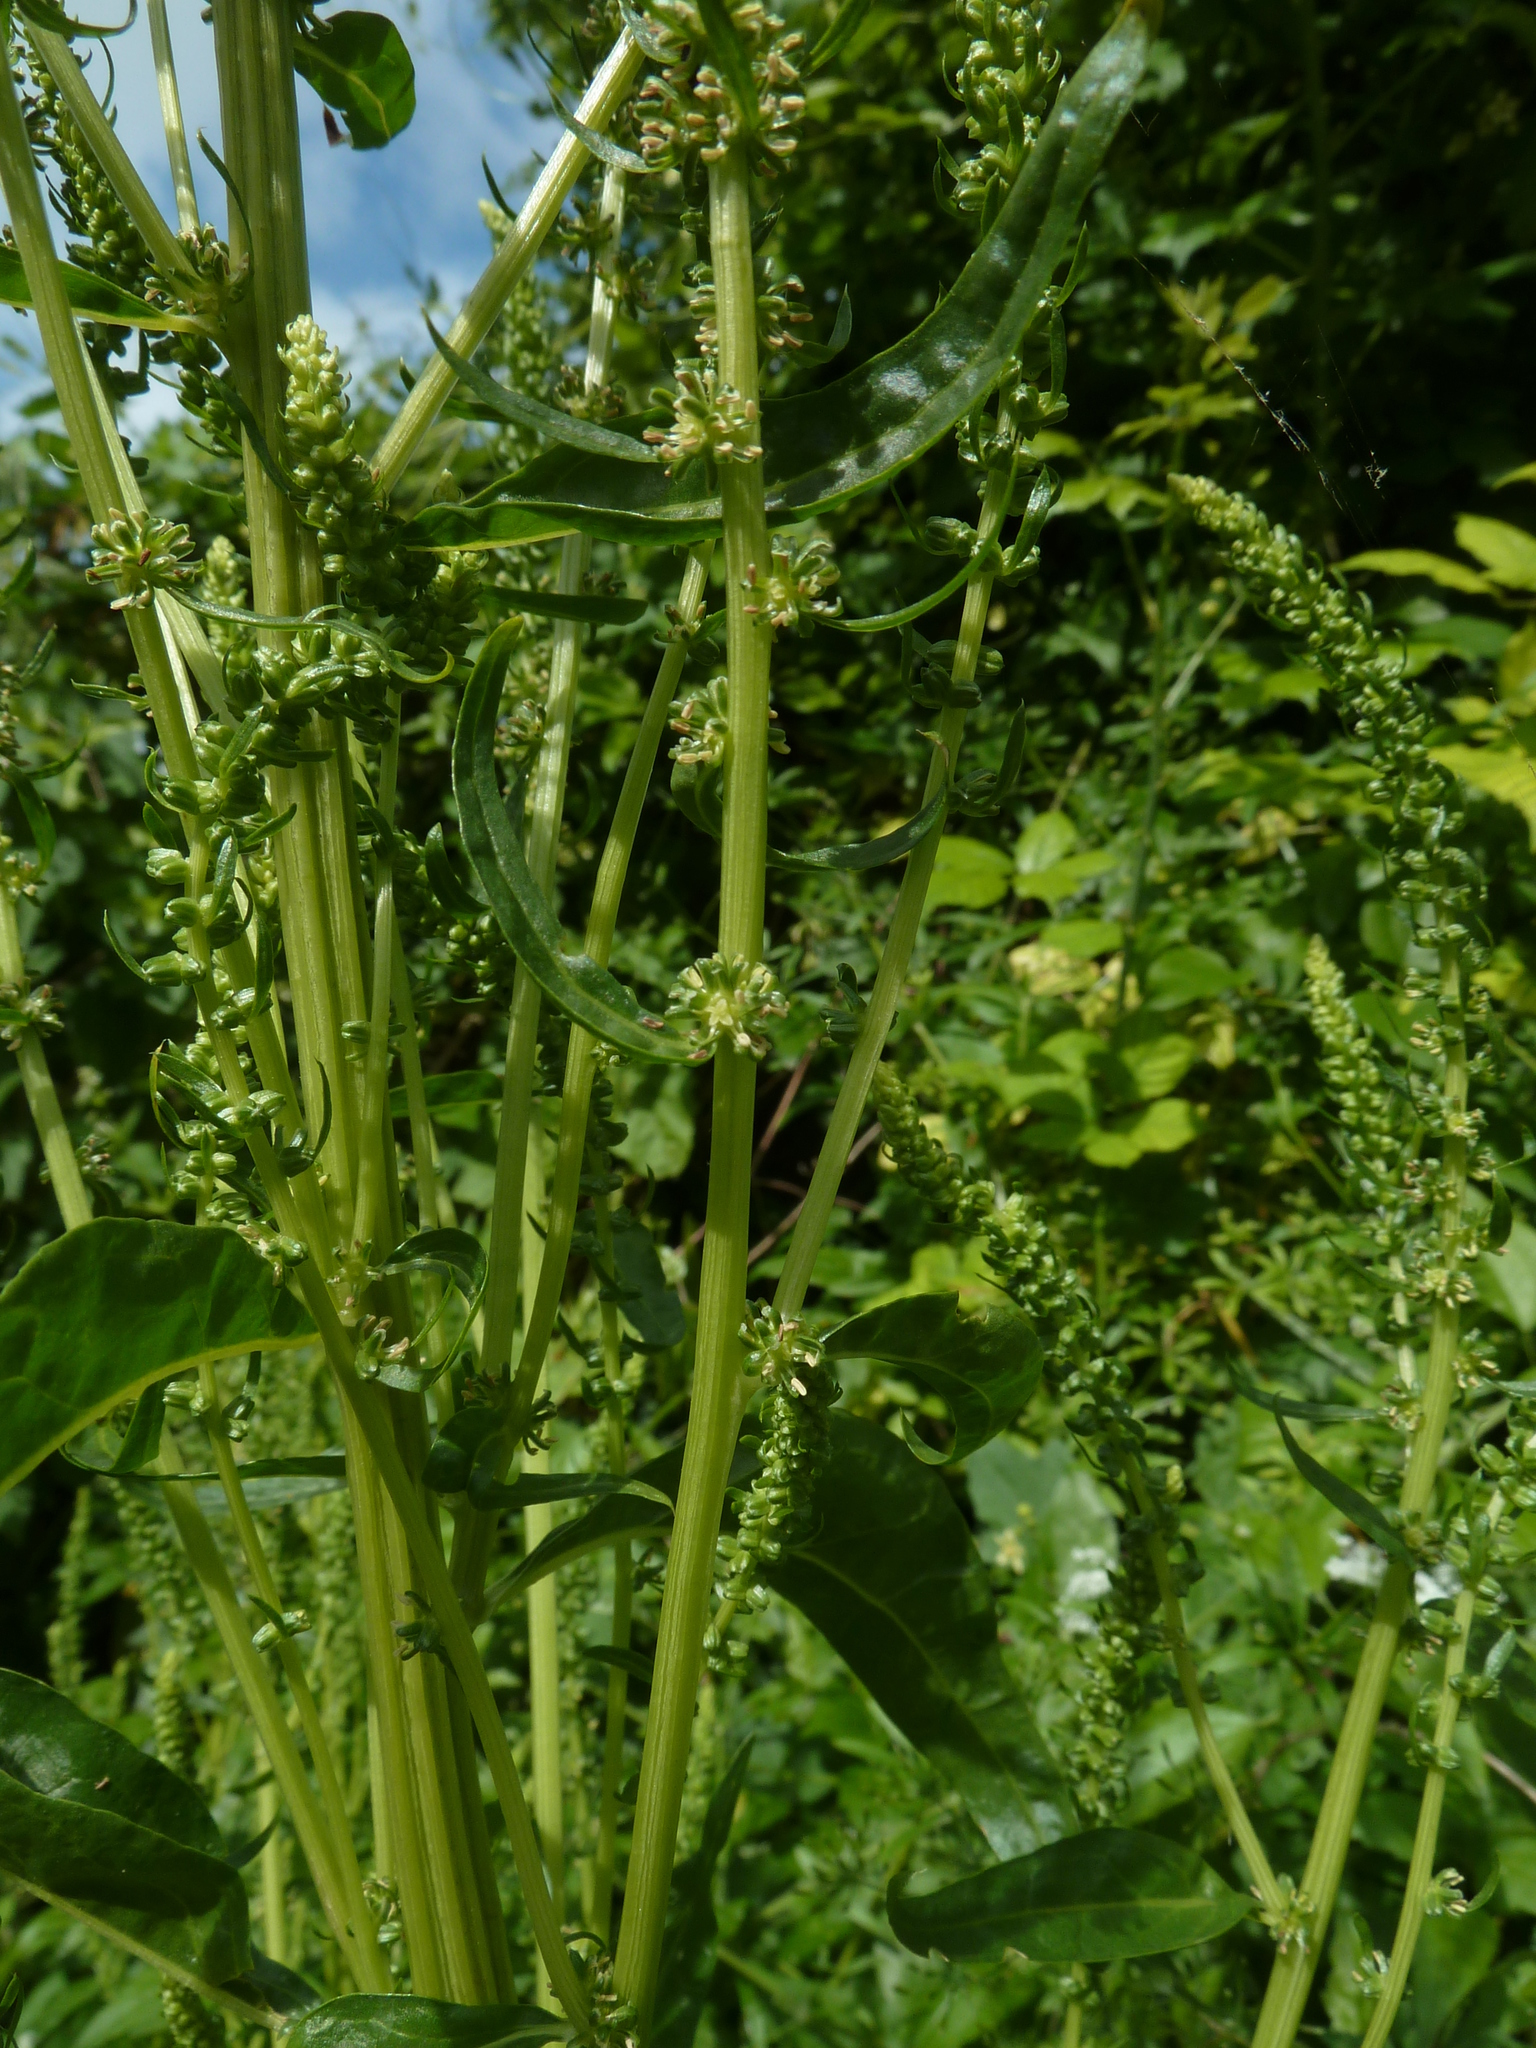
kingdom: Plantae
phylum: Tracheophyta
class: Magnoliopsida
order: Caryophyllales
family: Amaranthaceae
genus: Beta
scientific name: Beta vulgaris
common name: Beet
